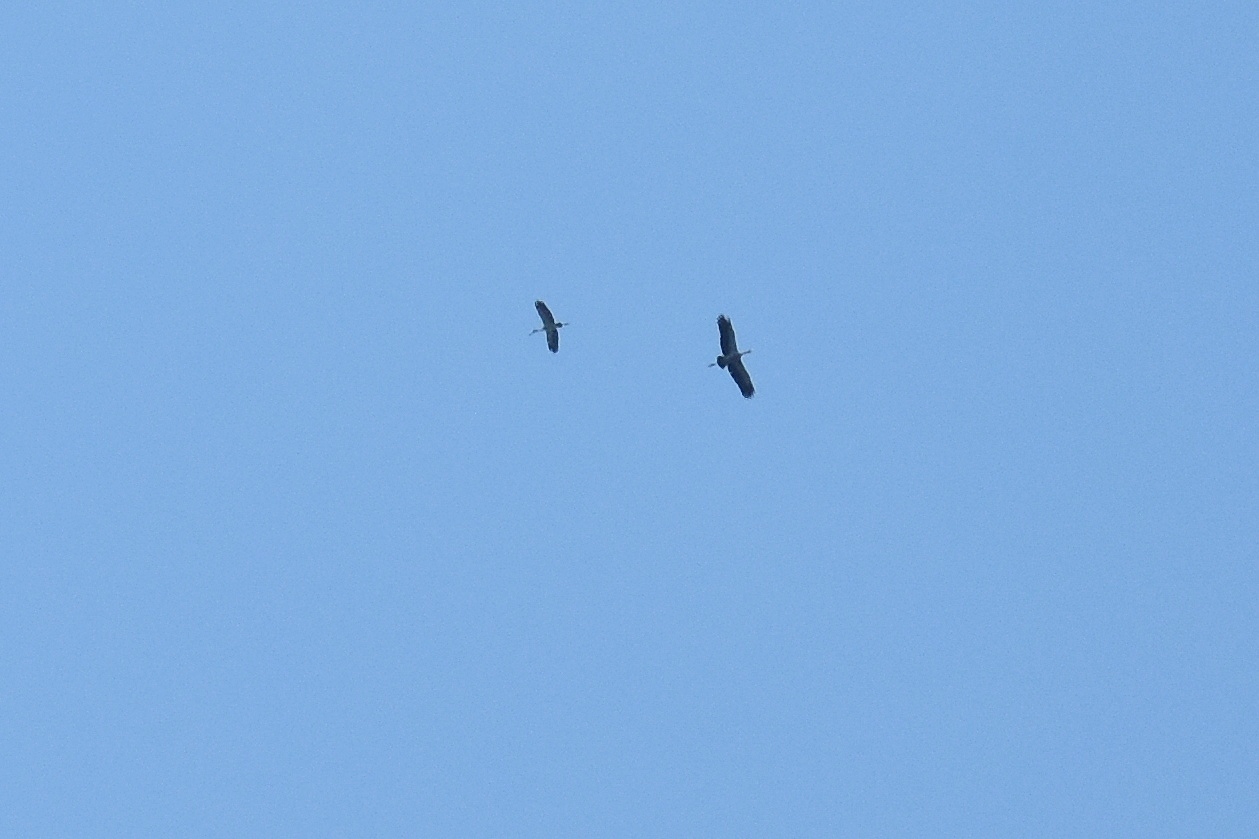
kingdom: Animalia
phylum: Chordata
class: Aves
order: Ciconiiformes
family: Ciconiidae
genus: Mycteria
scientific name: Mycteria leucocephala
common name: Painted stork
